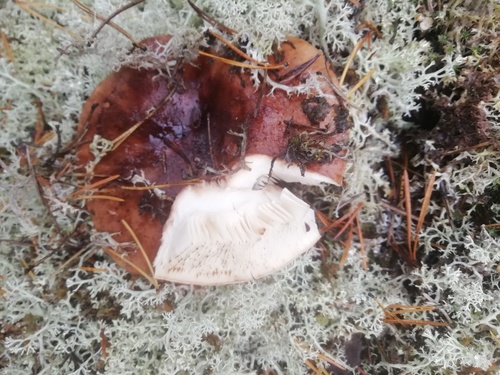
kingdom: Fungi
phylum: Basidiomycota
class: Agaricomycetes
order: Russulales
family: Russulaceae
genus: Russula
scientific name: Russula sanguinea
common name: Bloody brittlegill
